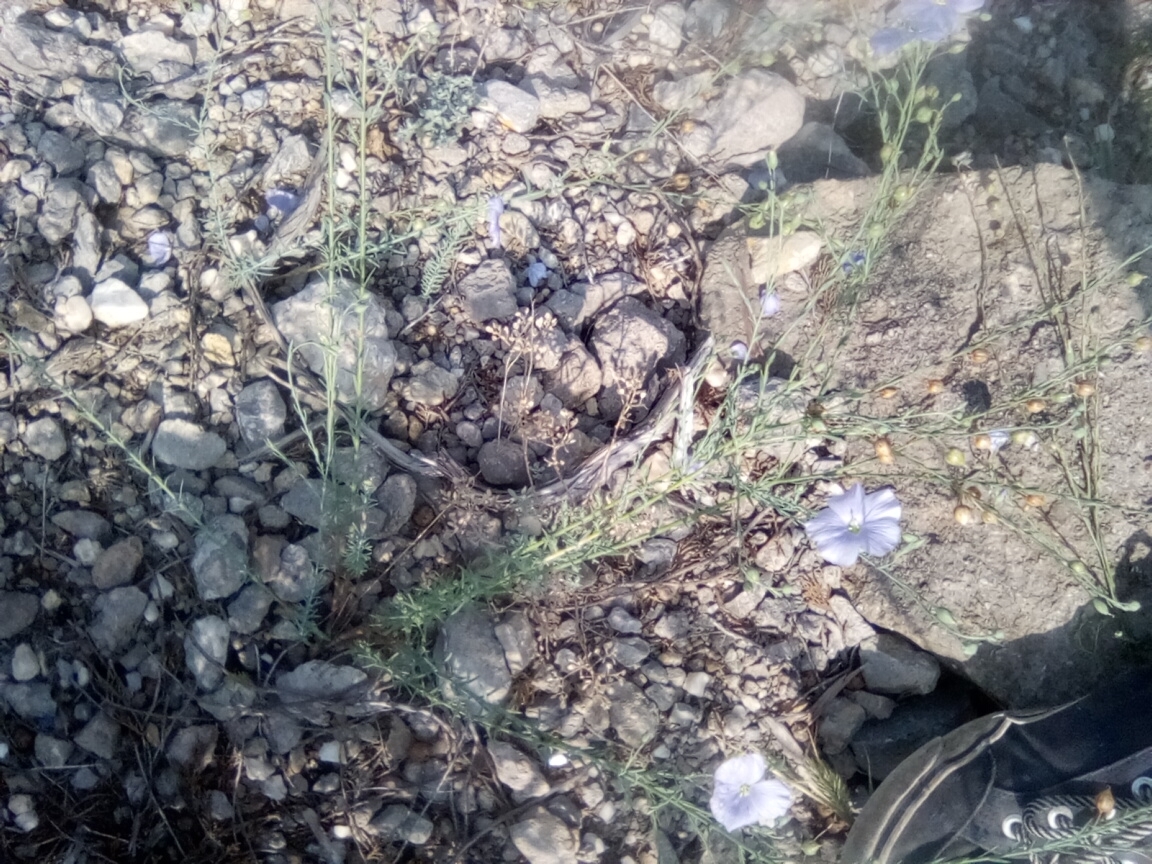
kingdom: Plantae
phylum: Tracheophyta
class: Magnoliopsida
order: Malpighiales
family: Linaceae
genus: Linum
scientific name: Linum austriacum
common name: Austrian flax
